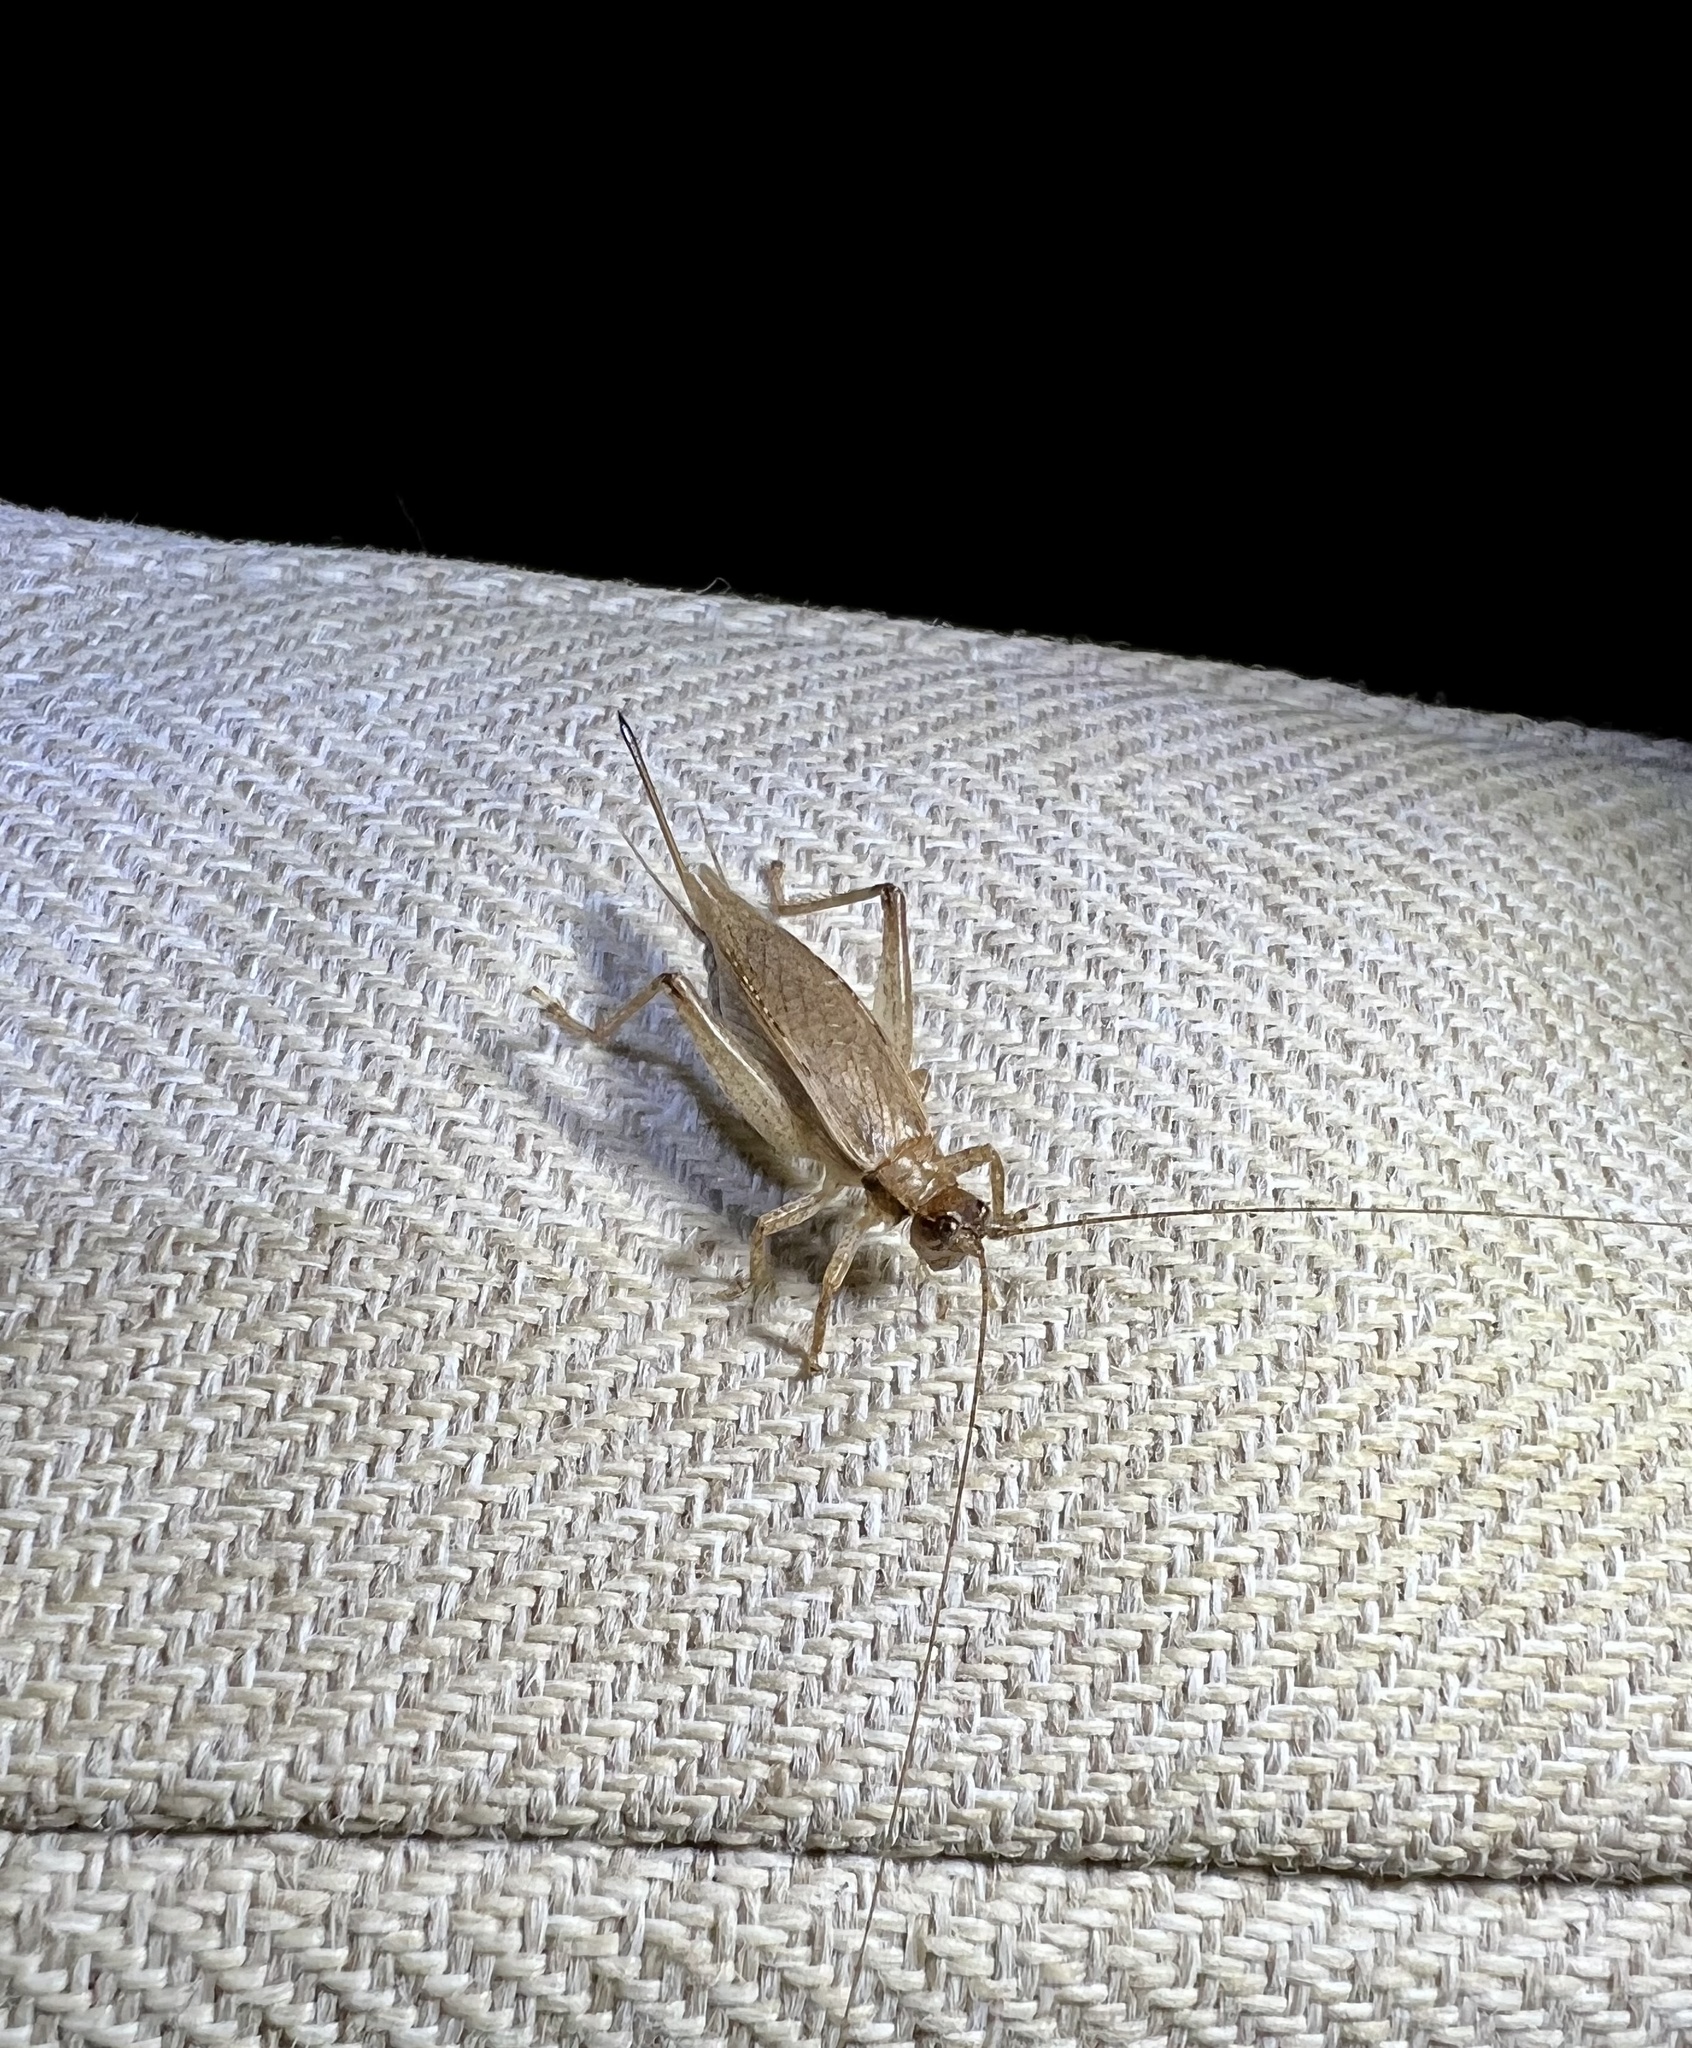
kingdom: Animalia
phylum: Arthropoda
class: Insecta
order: Orthoptera
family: Gryllidae
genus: Hapithus
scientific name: Hapithus saltator
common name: Jumping bush cricket
